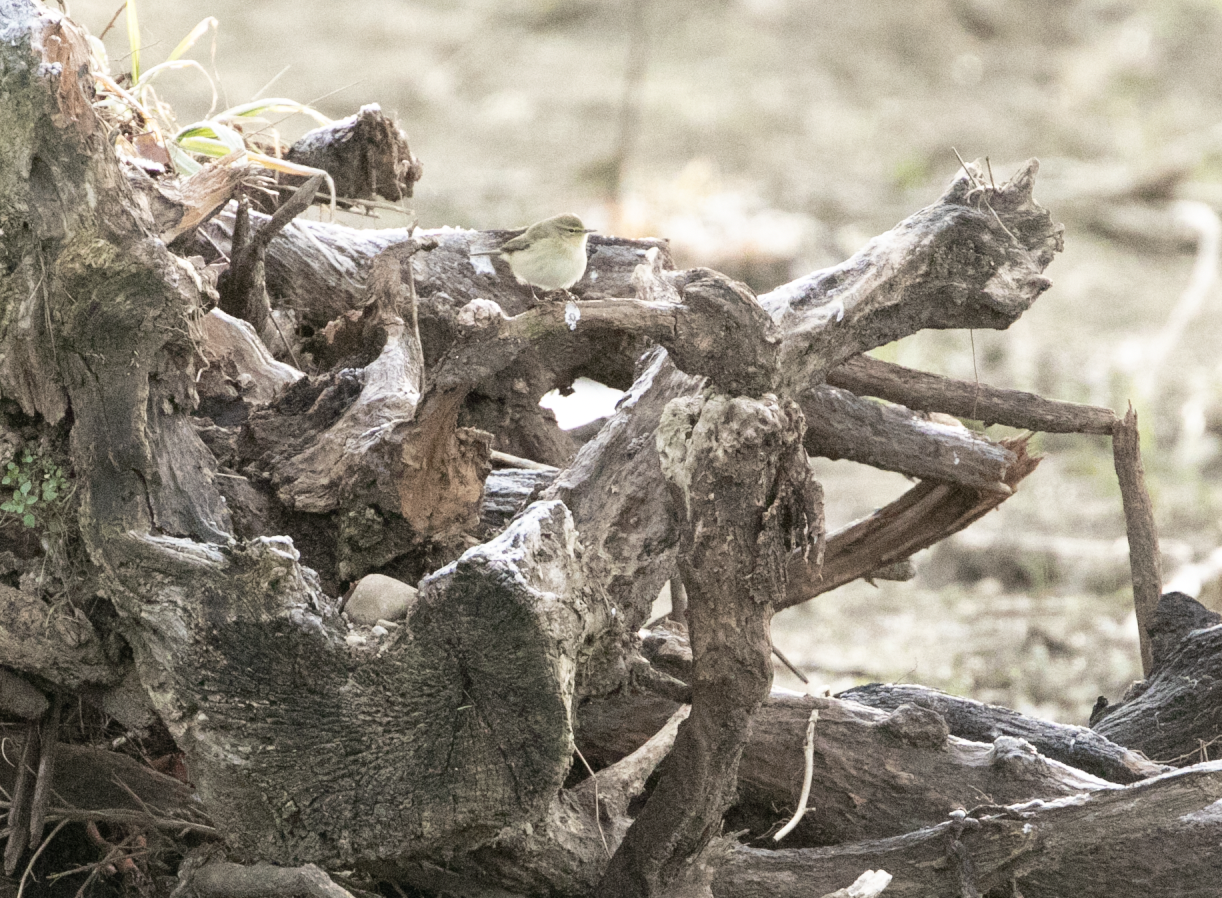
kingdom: Animalia
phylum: Chordata
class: Aves
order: Passeriformes
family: Phylloscopidae
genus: Phylloscopus
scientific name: Phylloscopus collybita
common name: Common chiffchaff
